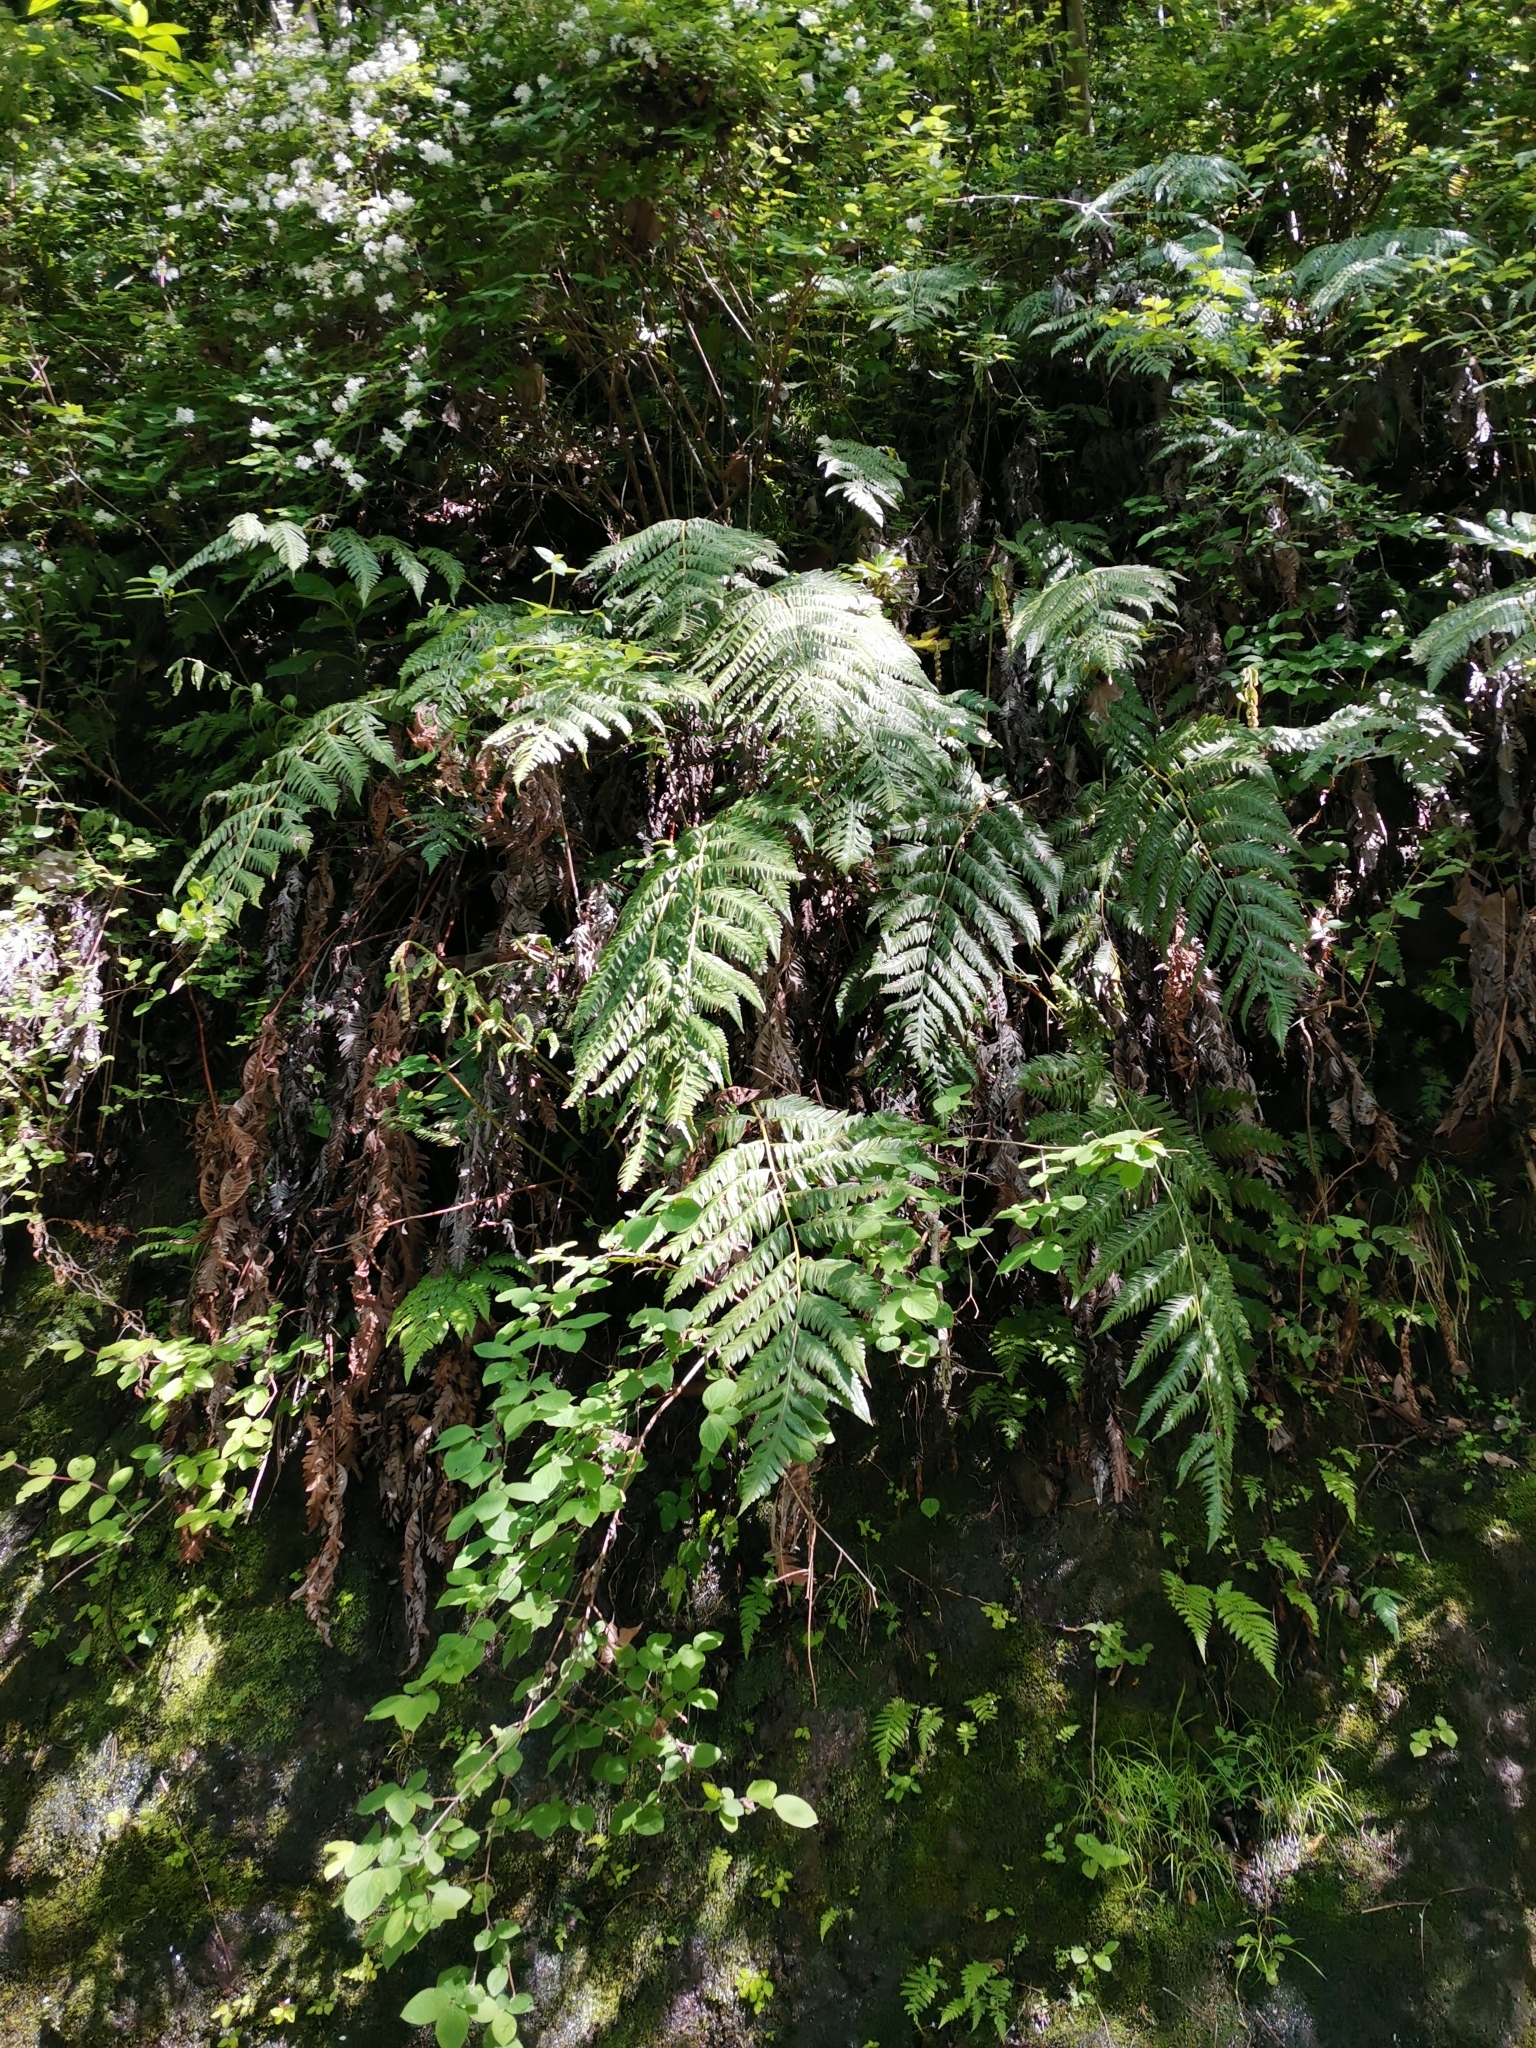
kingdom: Plantae
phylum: Tracheophyta
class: Polypodiopsida
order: Polypodiales
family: Blechnaceae
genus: Woodwardia
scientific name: Woodwardia orientalis
